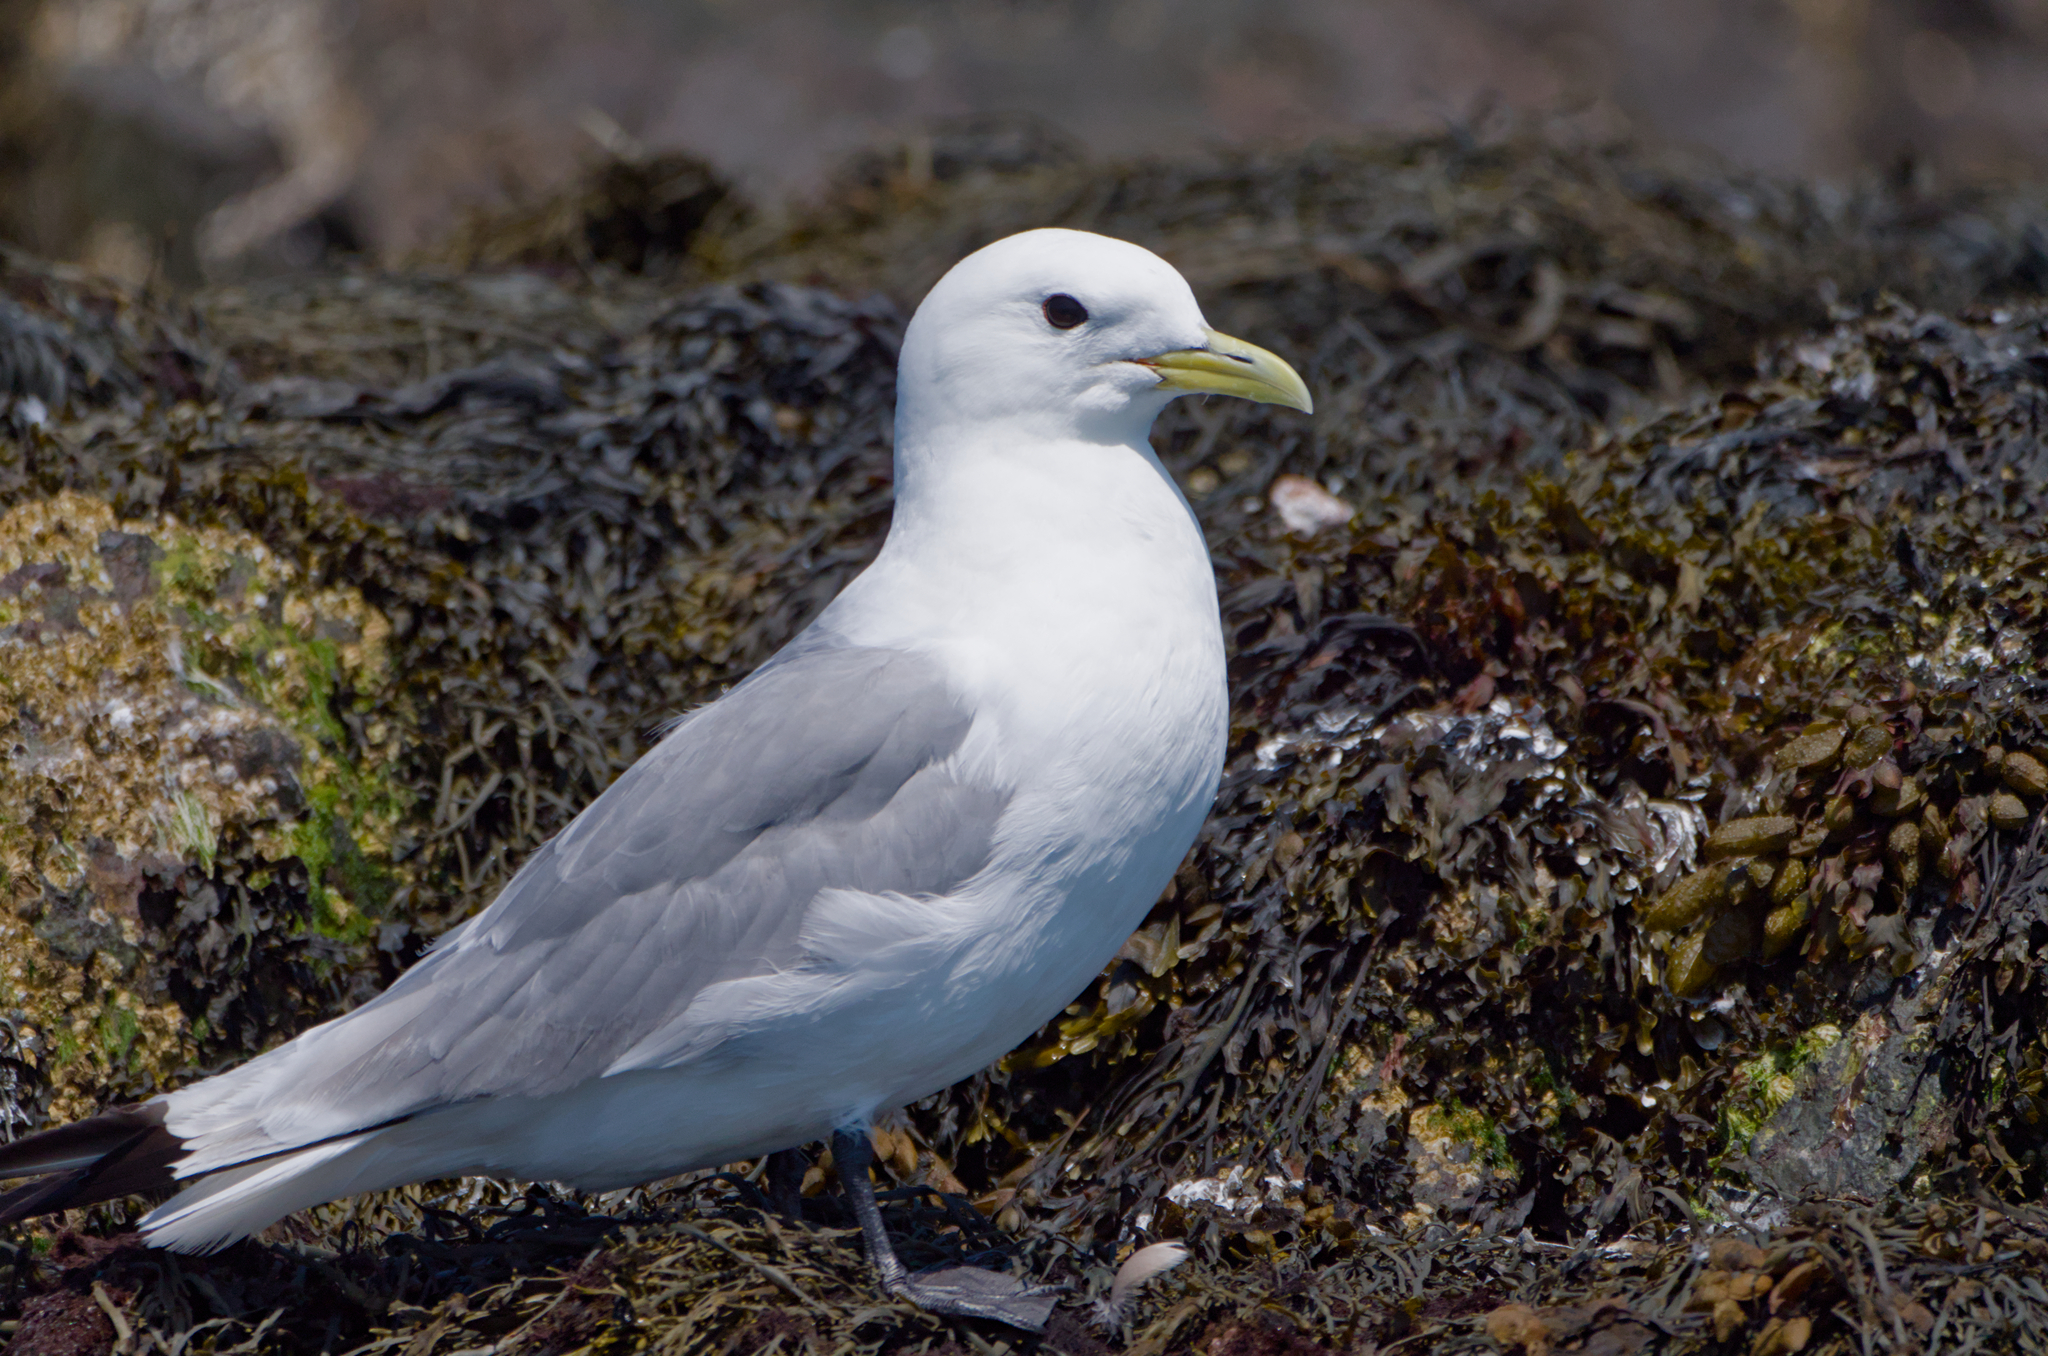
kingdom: Animalia
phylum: Chordata
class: Aves
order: Charadriiformes
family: Laridae
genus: Rissa
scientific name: Rissa tridactyla
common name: Black-legged kittiwake
